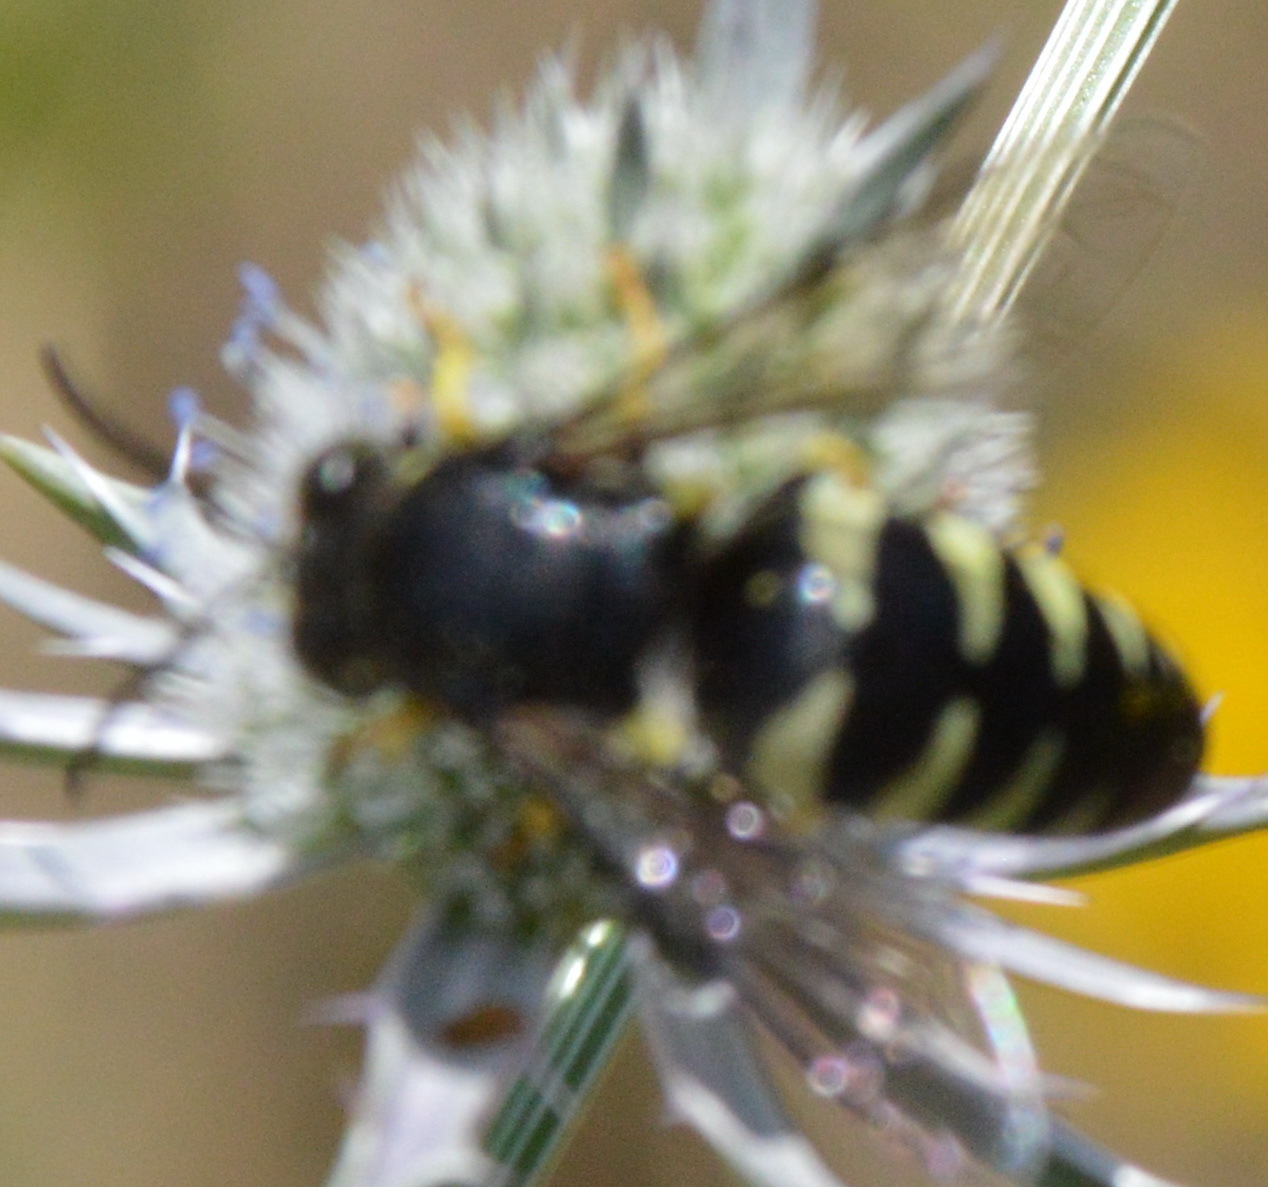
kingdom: Animalia
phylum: Arthropoda
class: Insecta
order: Hymenoptera
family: Crabronidae
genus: Bicyrtes
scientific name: Bicyrtes quadrifasciatus
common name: Four-banded stink bug hunter wasp
